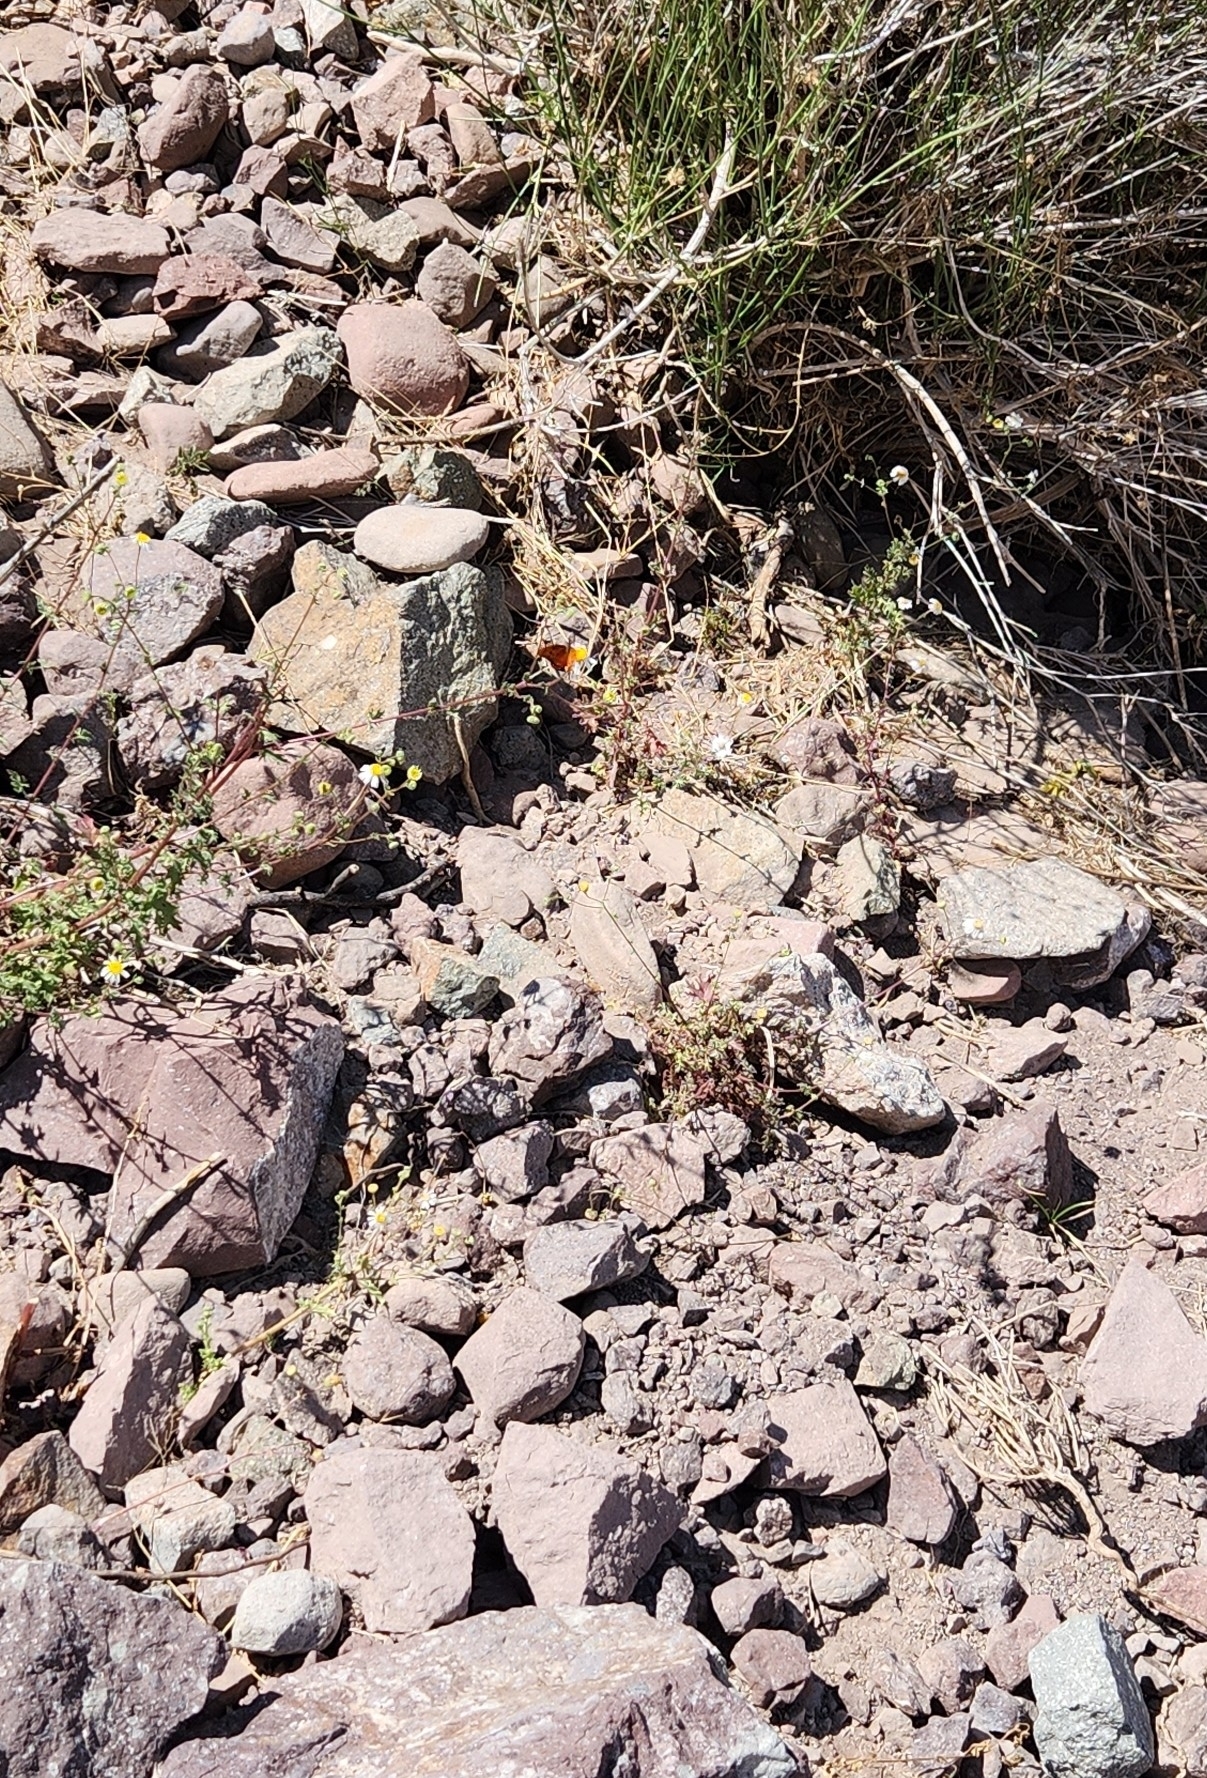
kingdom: Animalia
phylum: Arthropoda
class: Insecta
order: Lepidoptera
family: Nymphalidae
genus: Dione
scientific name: Dione vanillae
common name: Gulf fritillary
